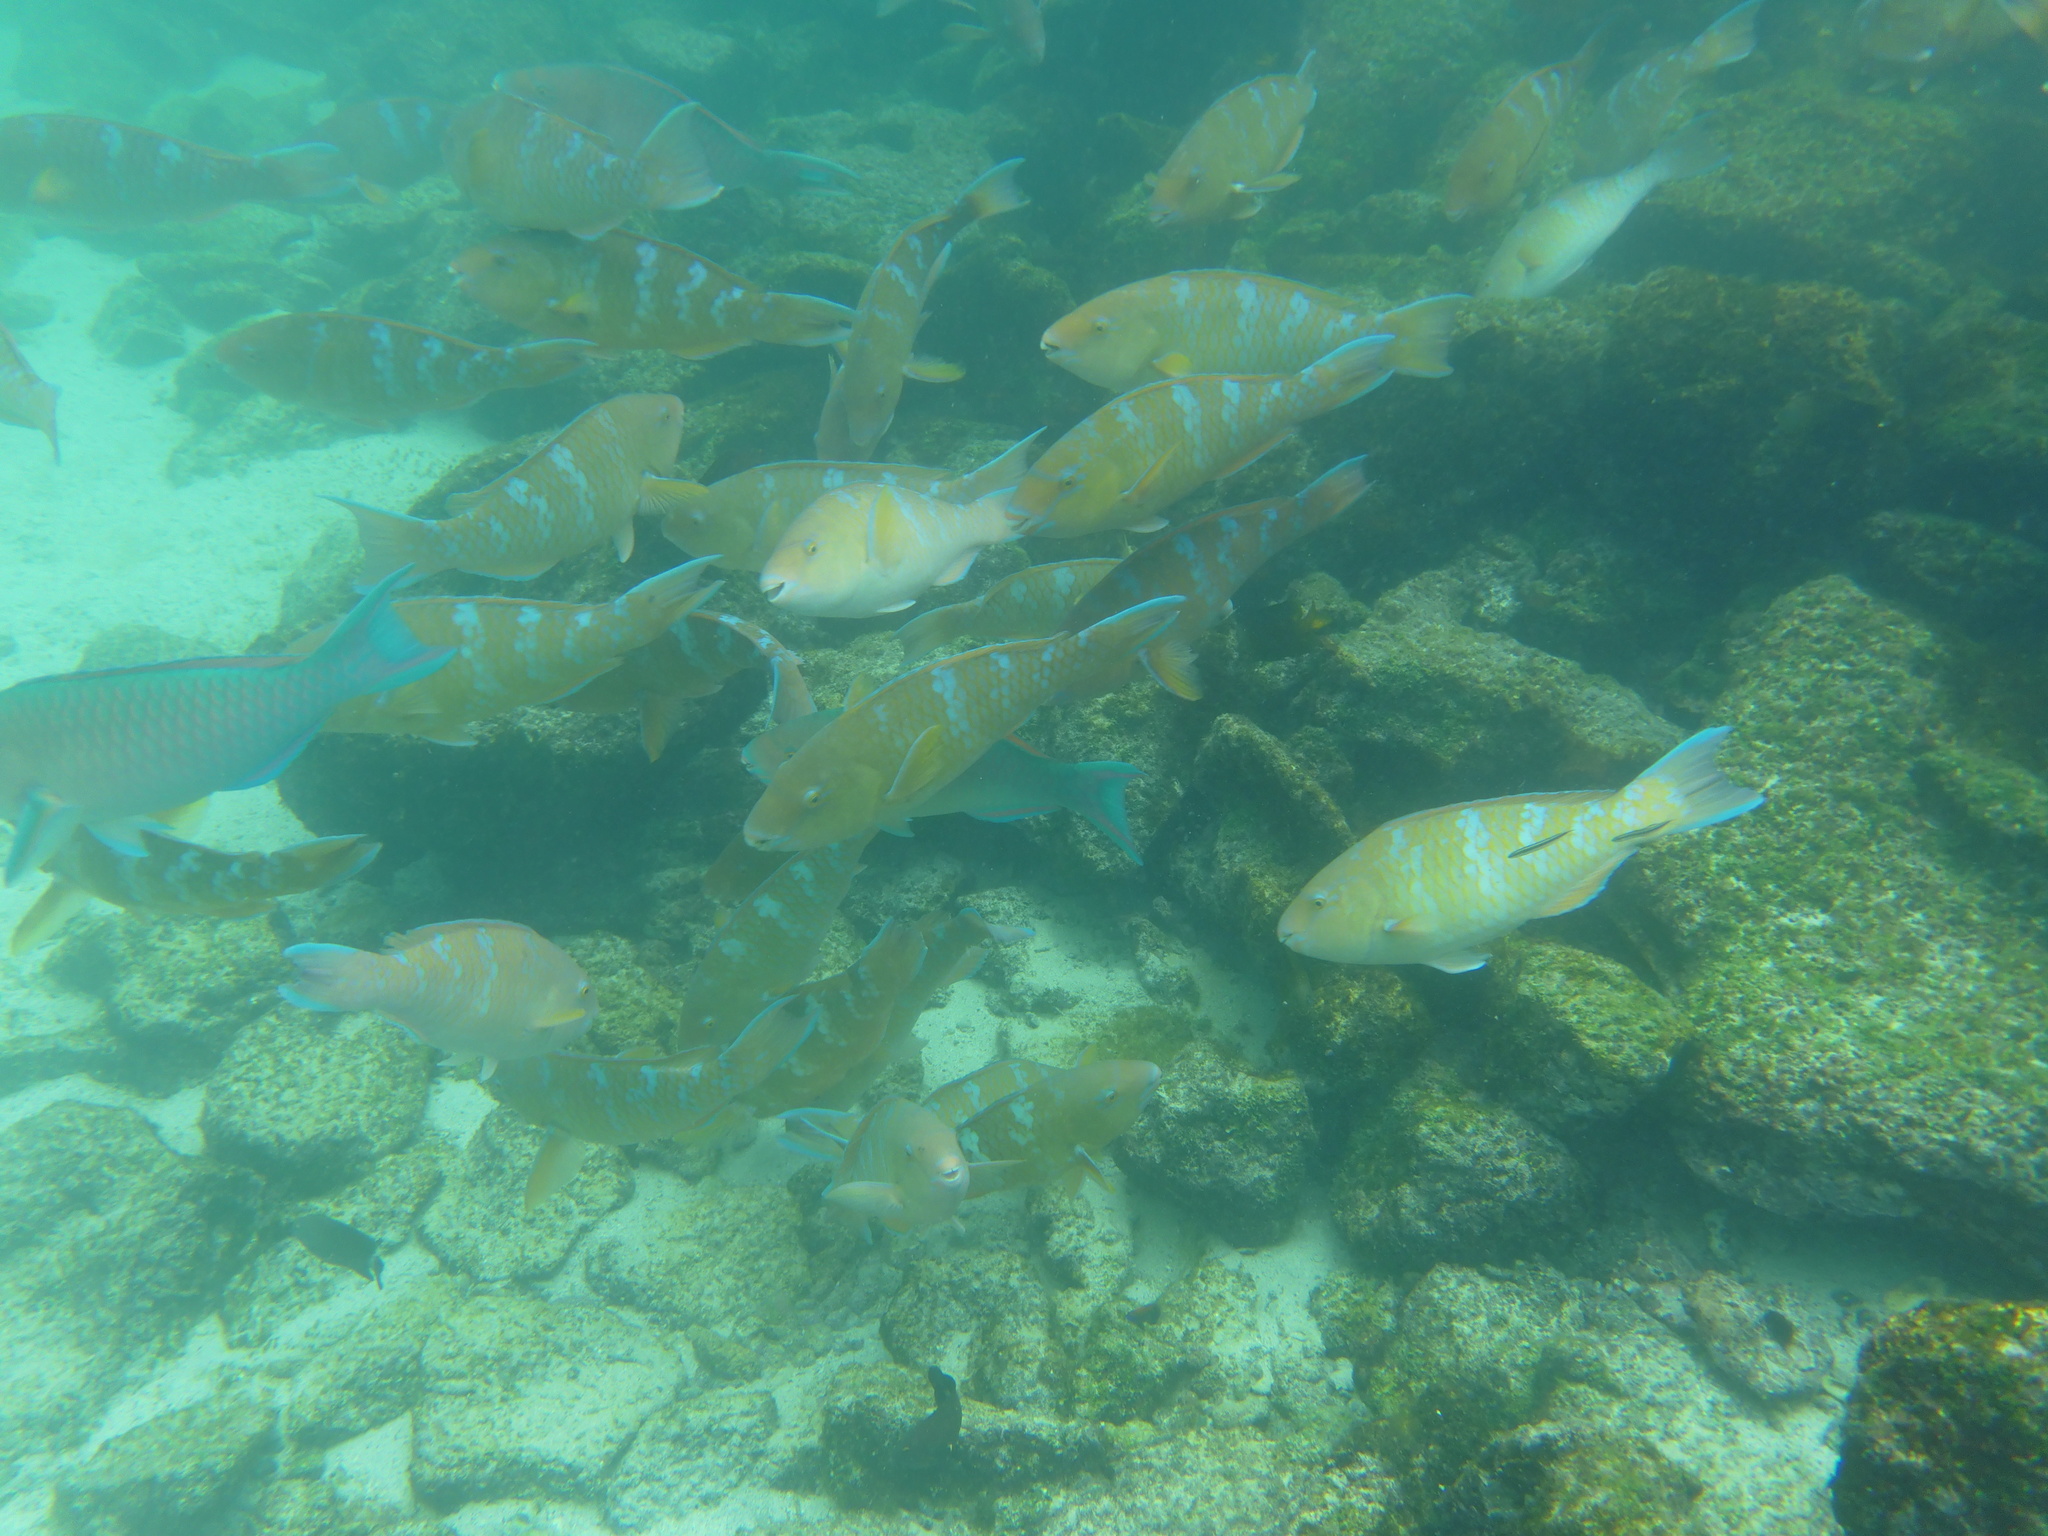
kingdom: Animalia
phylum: Chordata
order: Perciformes
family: Scaridae
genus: Scarus
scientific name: Scarus ghobban
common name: Blue-barred parrotfish
